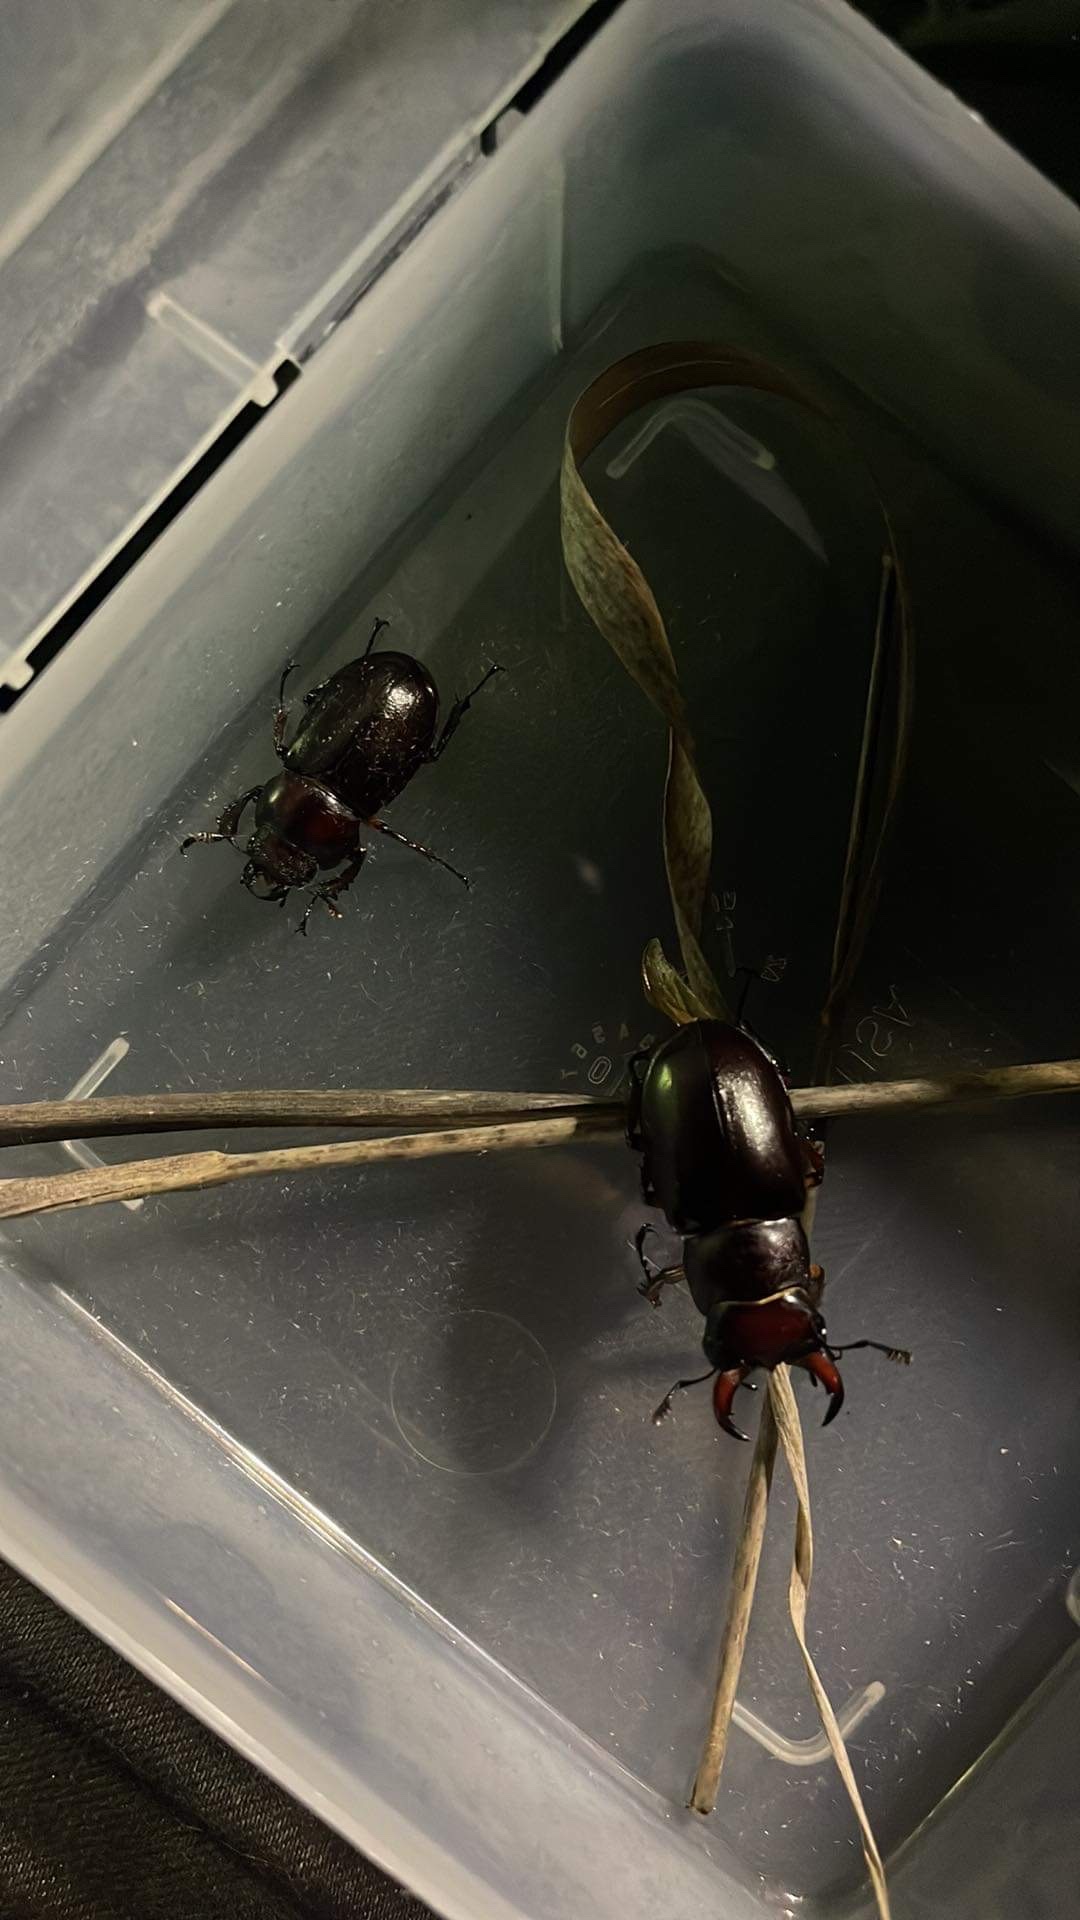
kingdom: Animalia
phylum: Arthropoda
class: Insecta
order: Coleoptera
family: Lucanidae
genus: Lucanus
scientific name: Lucanus capreolus
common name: Stag beetle
